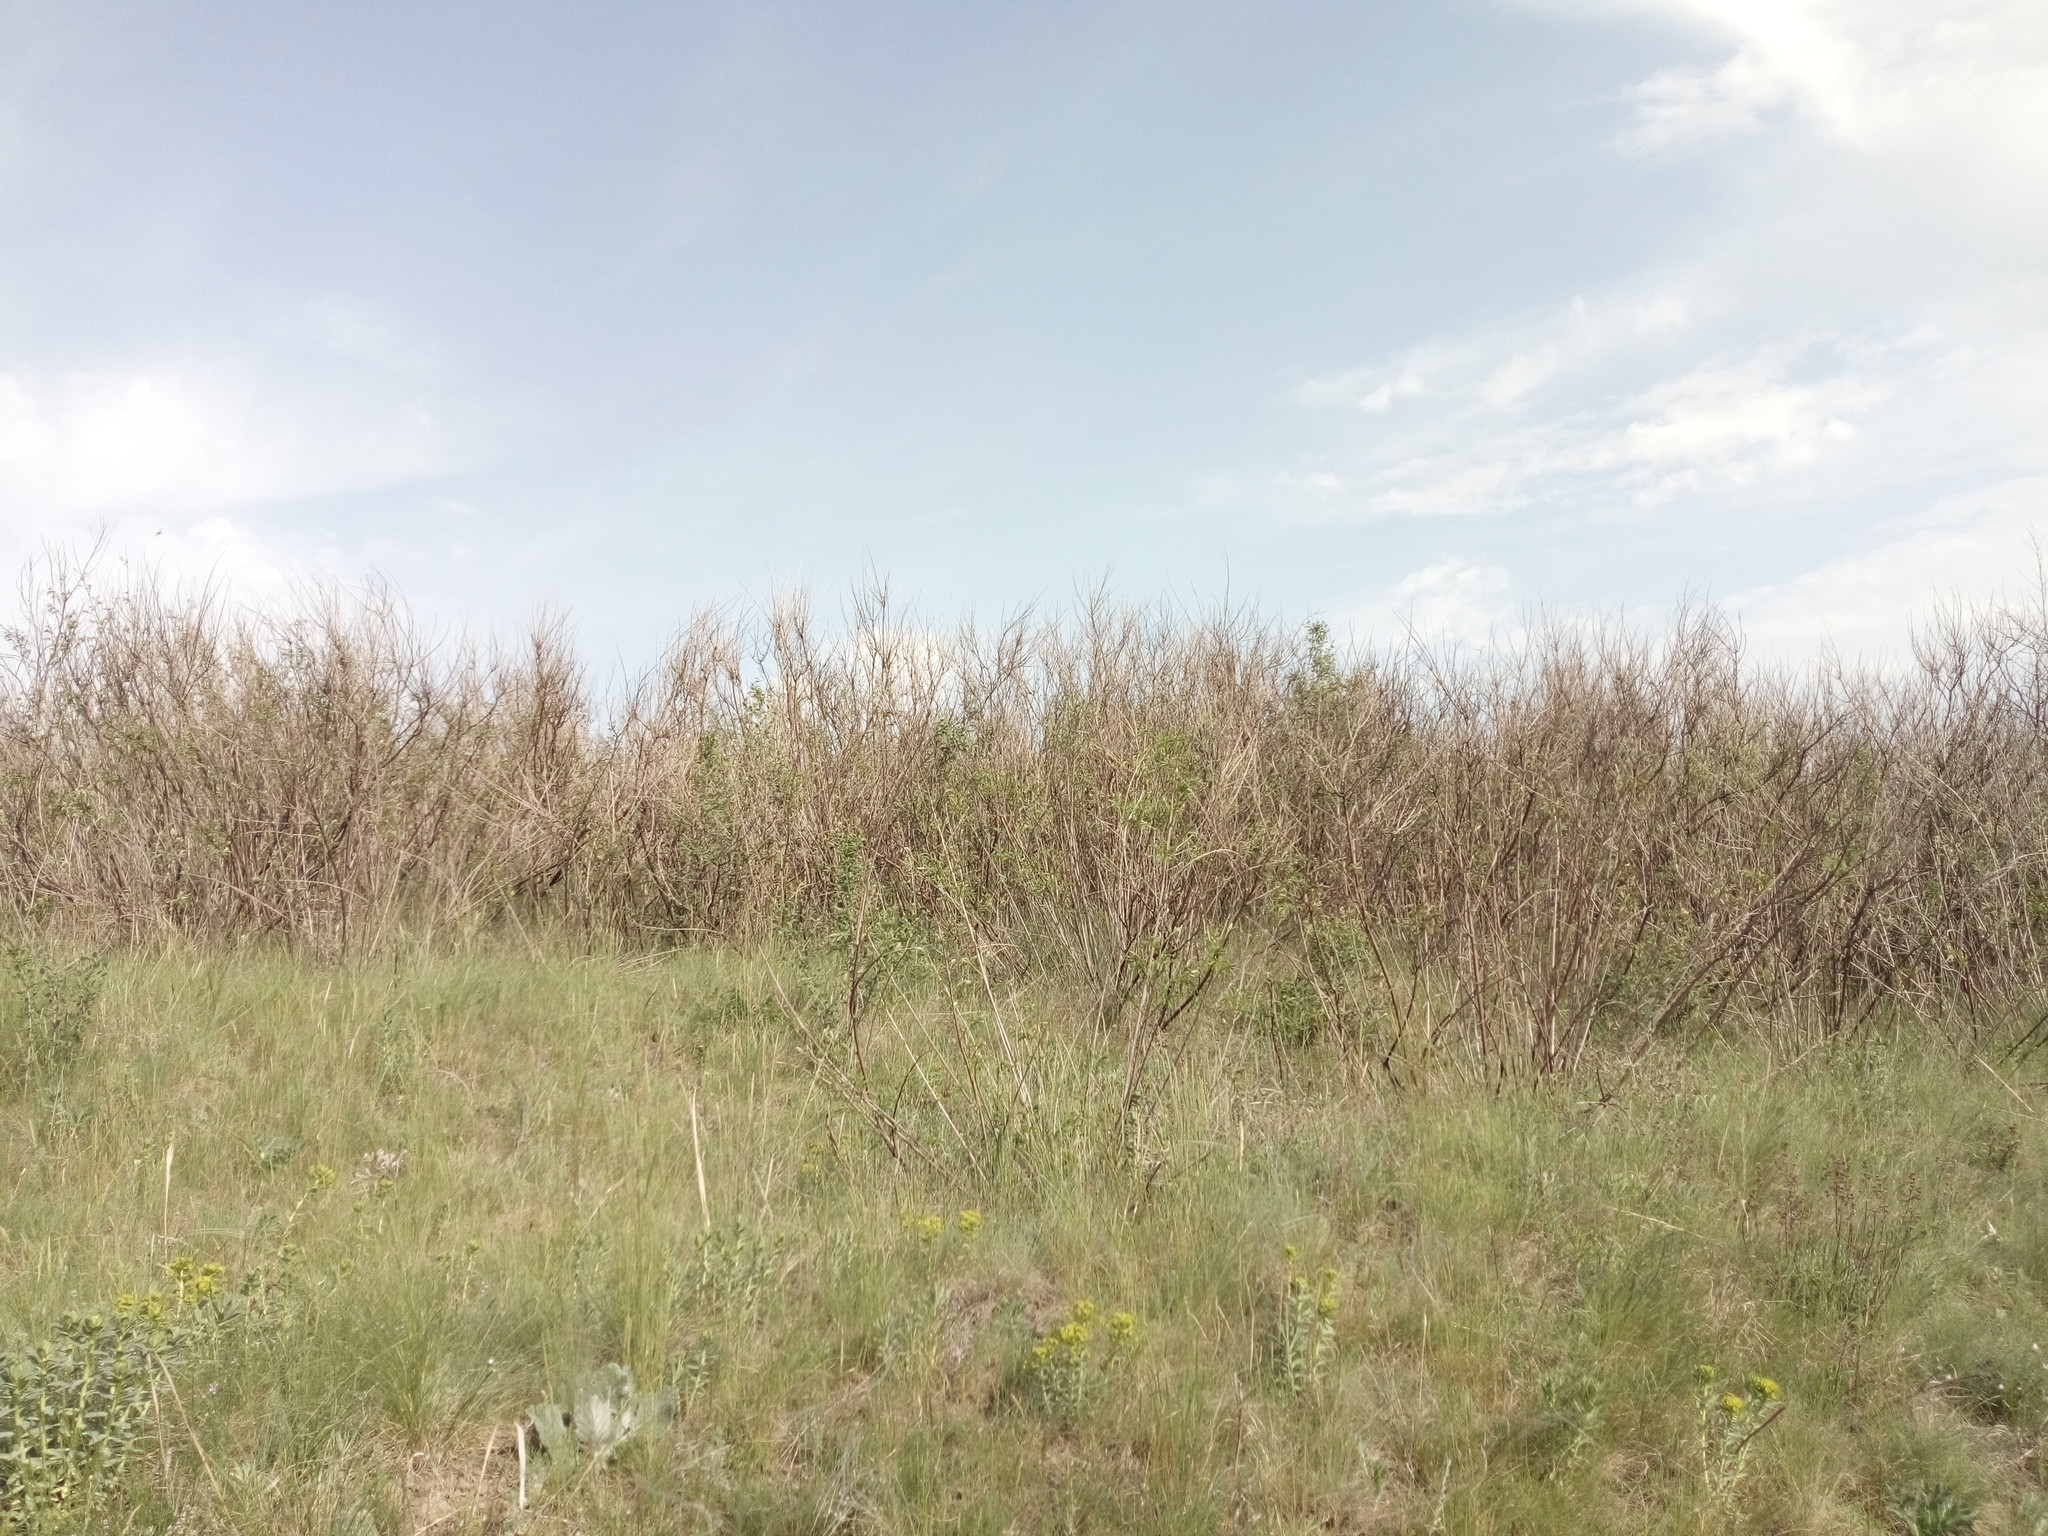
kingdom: Plantae
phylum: Tracheophyta
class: Magnoliopsida
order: Fabales
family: Fabaceae
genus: Amorpha
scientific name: Amorpha fruticosa
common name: False indigo
